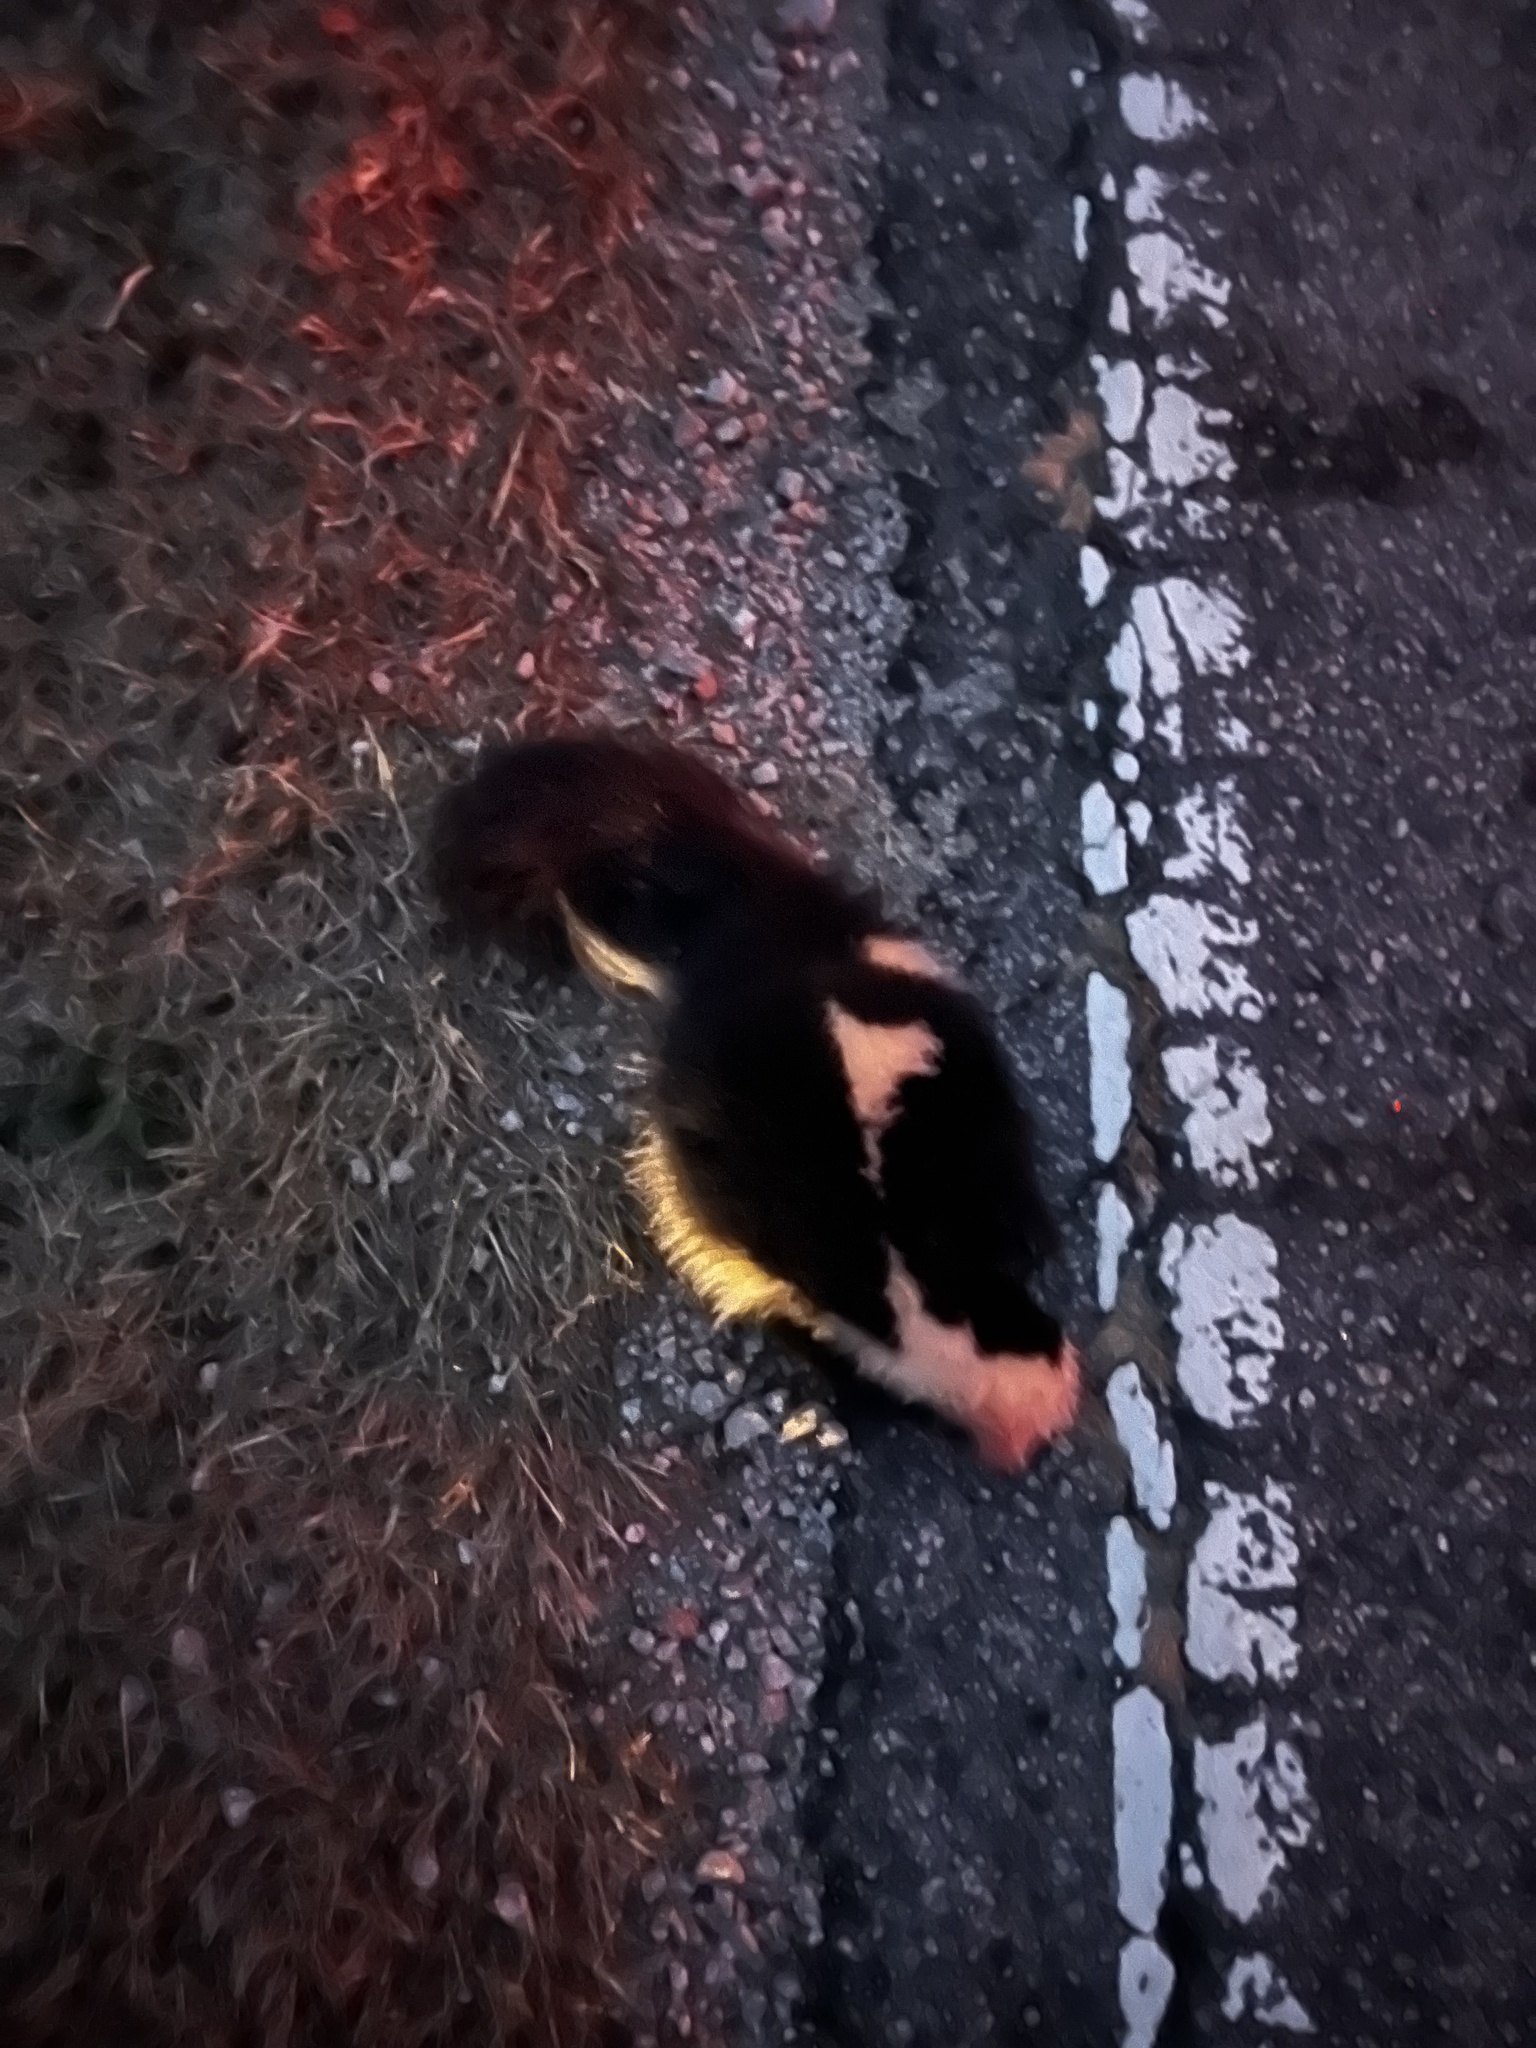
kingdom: Animalia
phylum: Chordata
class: Mammalia
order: Carnivora
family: Mephitidae
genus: Mephitis
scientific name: Mephitis mephitis
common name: Striped skunk
